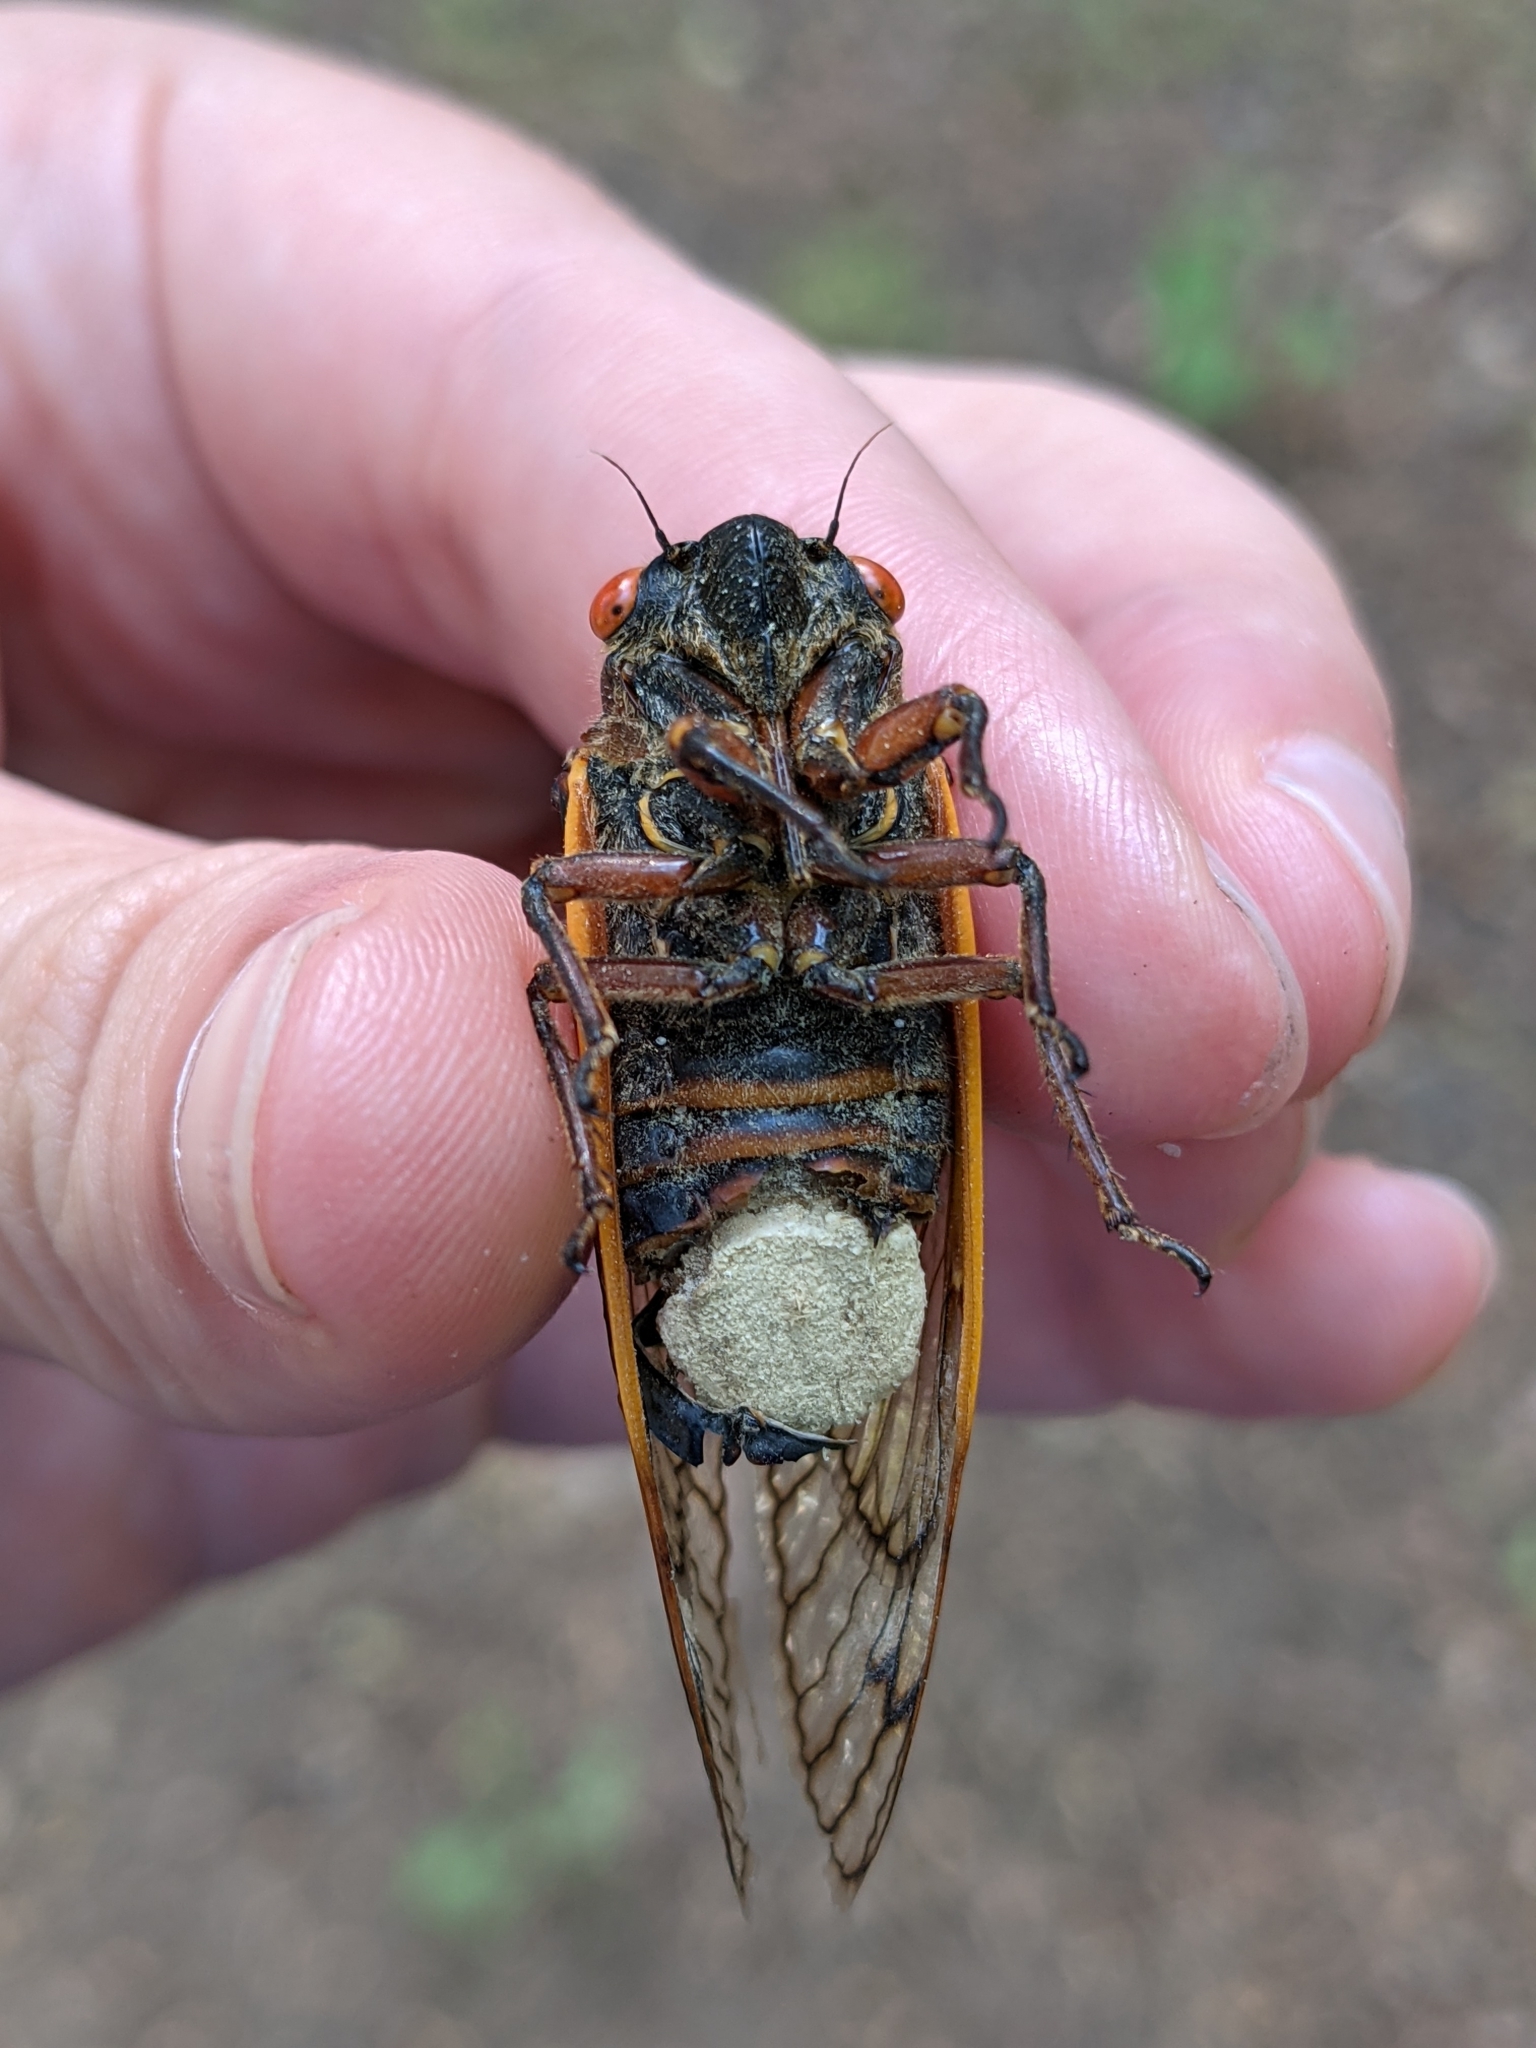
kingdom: Fungi
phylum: Entomophthoromycota
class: Entomophthoromycetes
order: Entomophthorales
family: Entomophthoraceae
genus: Massospora
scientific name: Massospora cicadina
